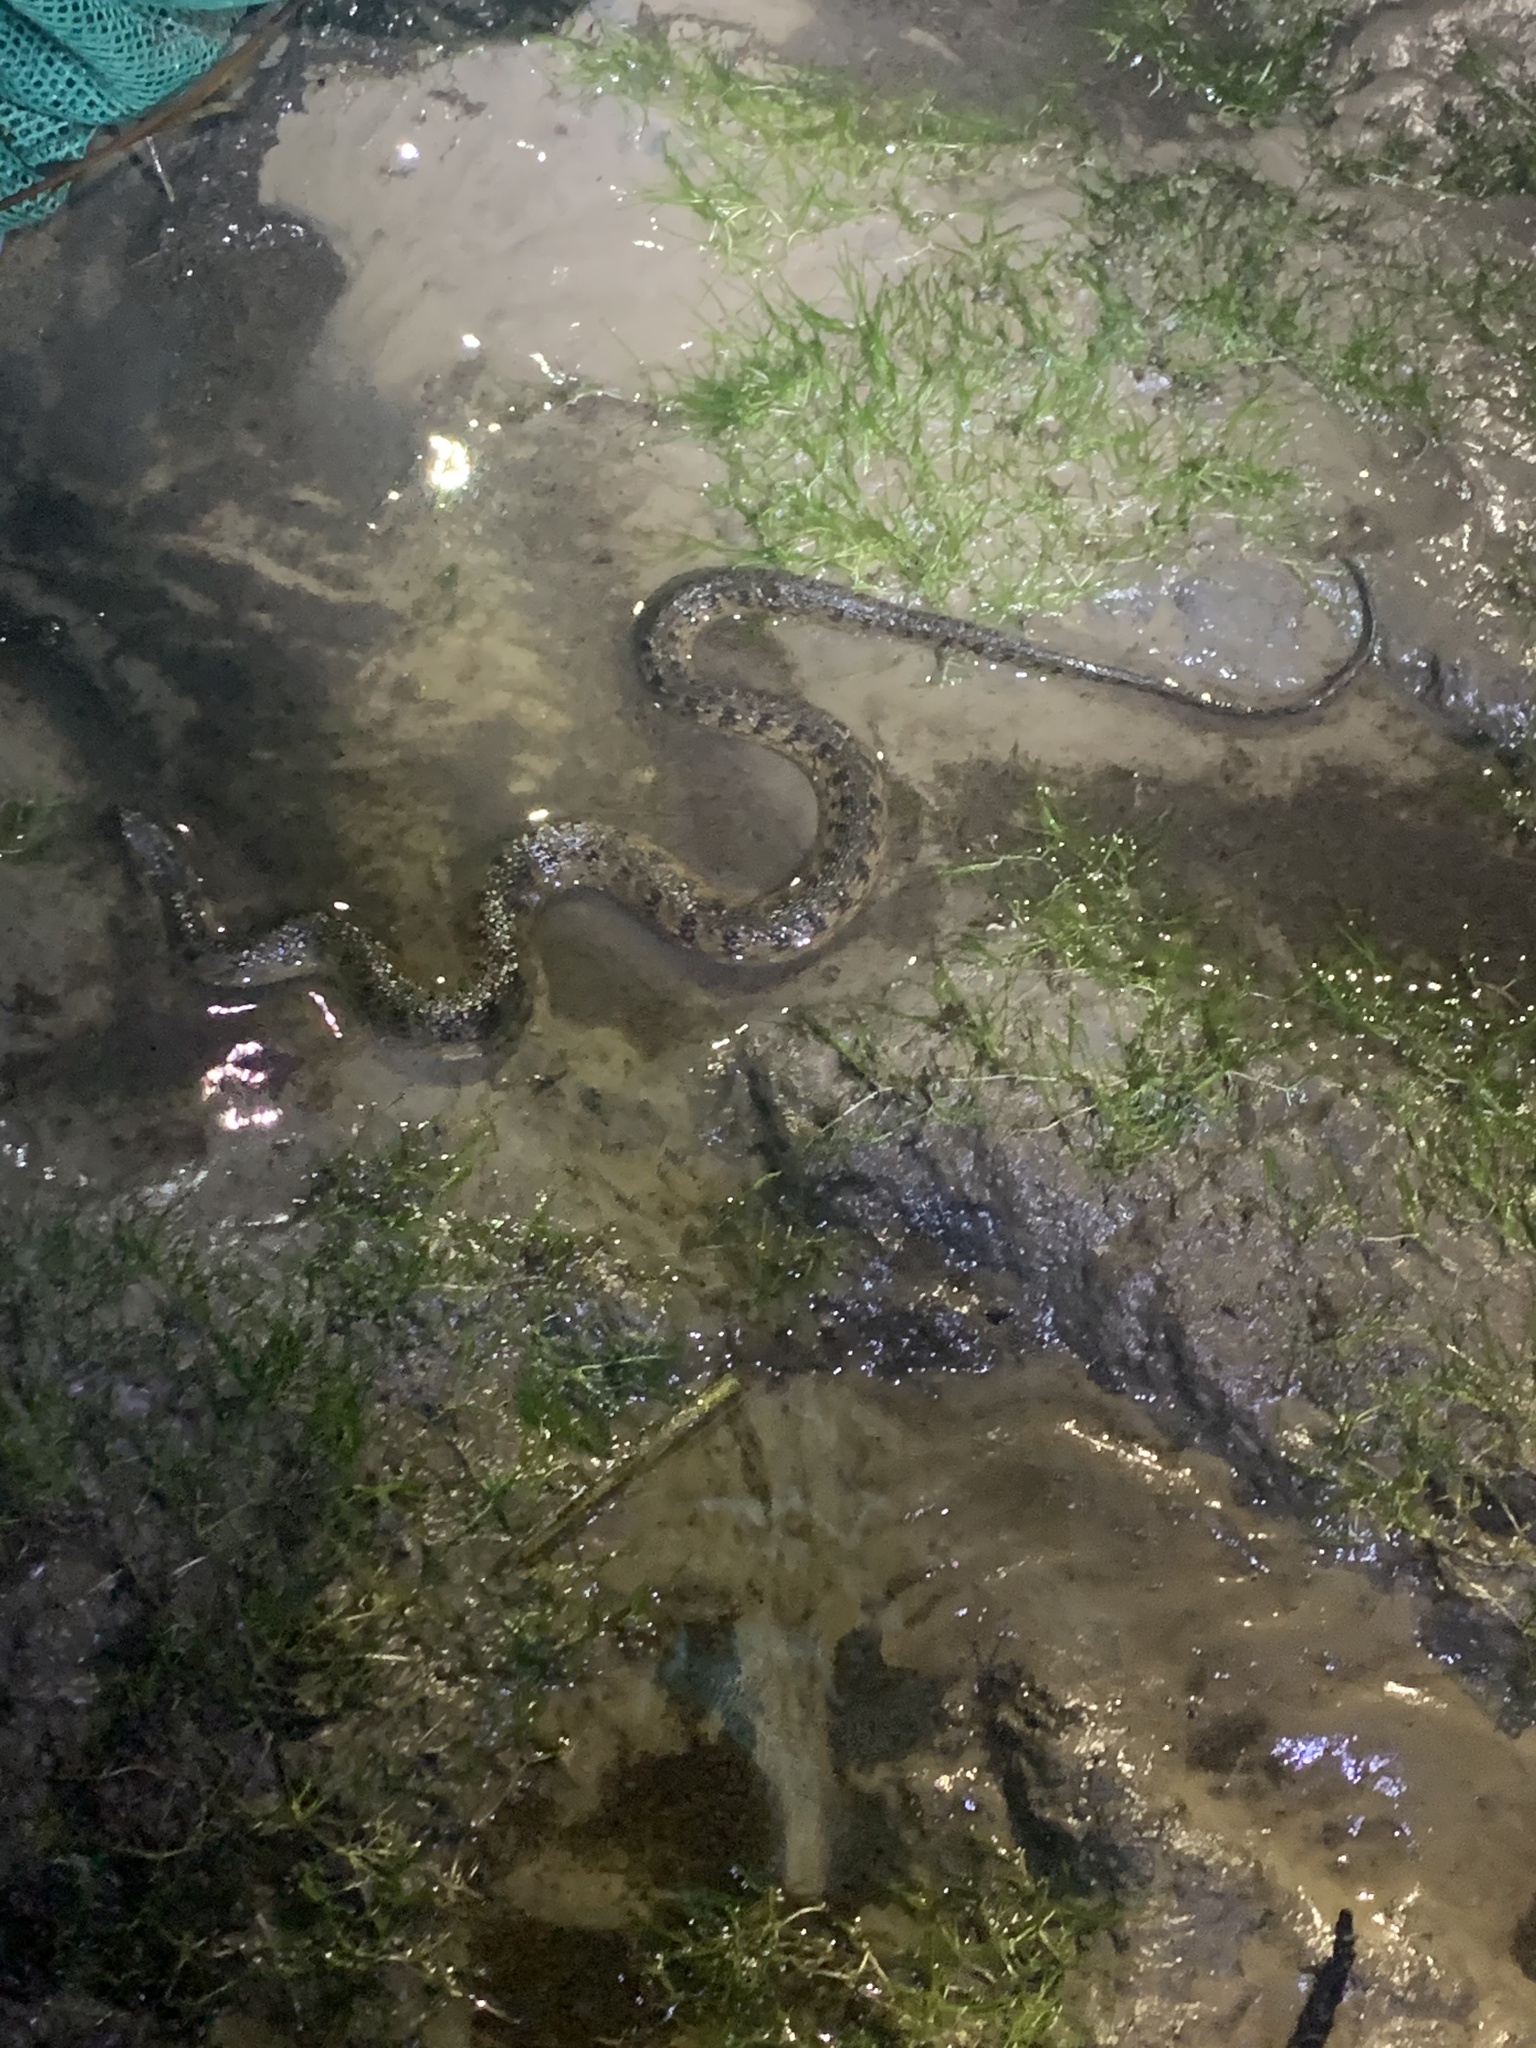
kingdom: Animalia
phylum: Chordata
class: Squamata
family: Colubridae
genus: Nerodia
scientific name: Nerodia cyclopion
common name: Mississippi green water snake
